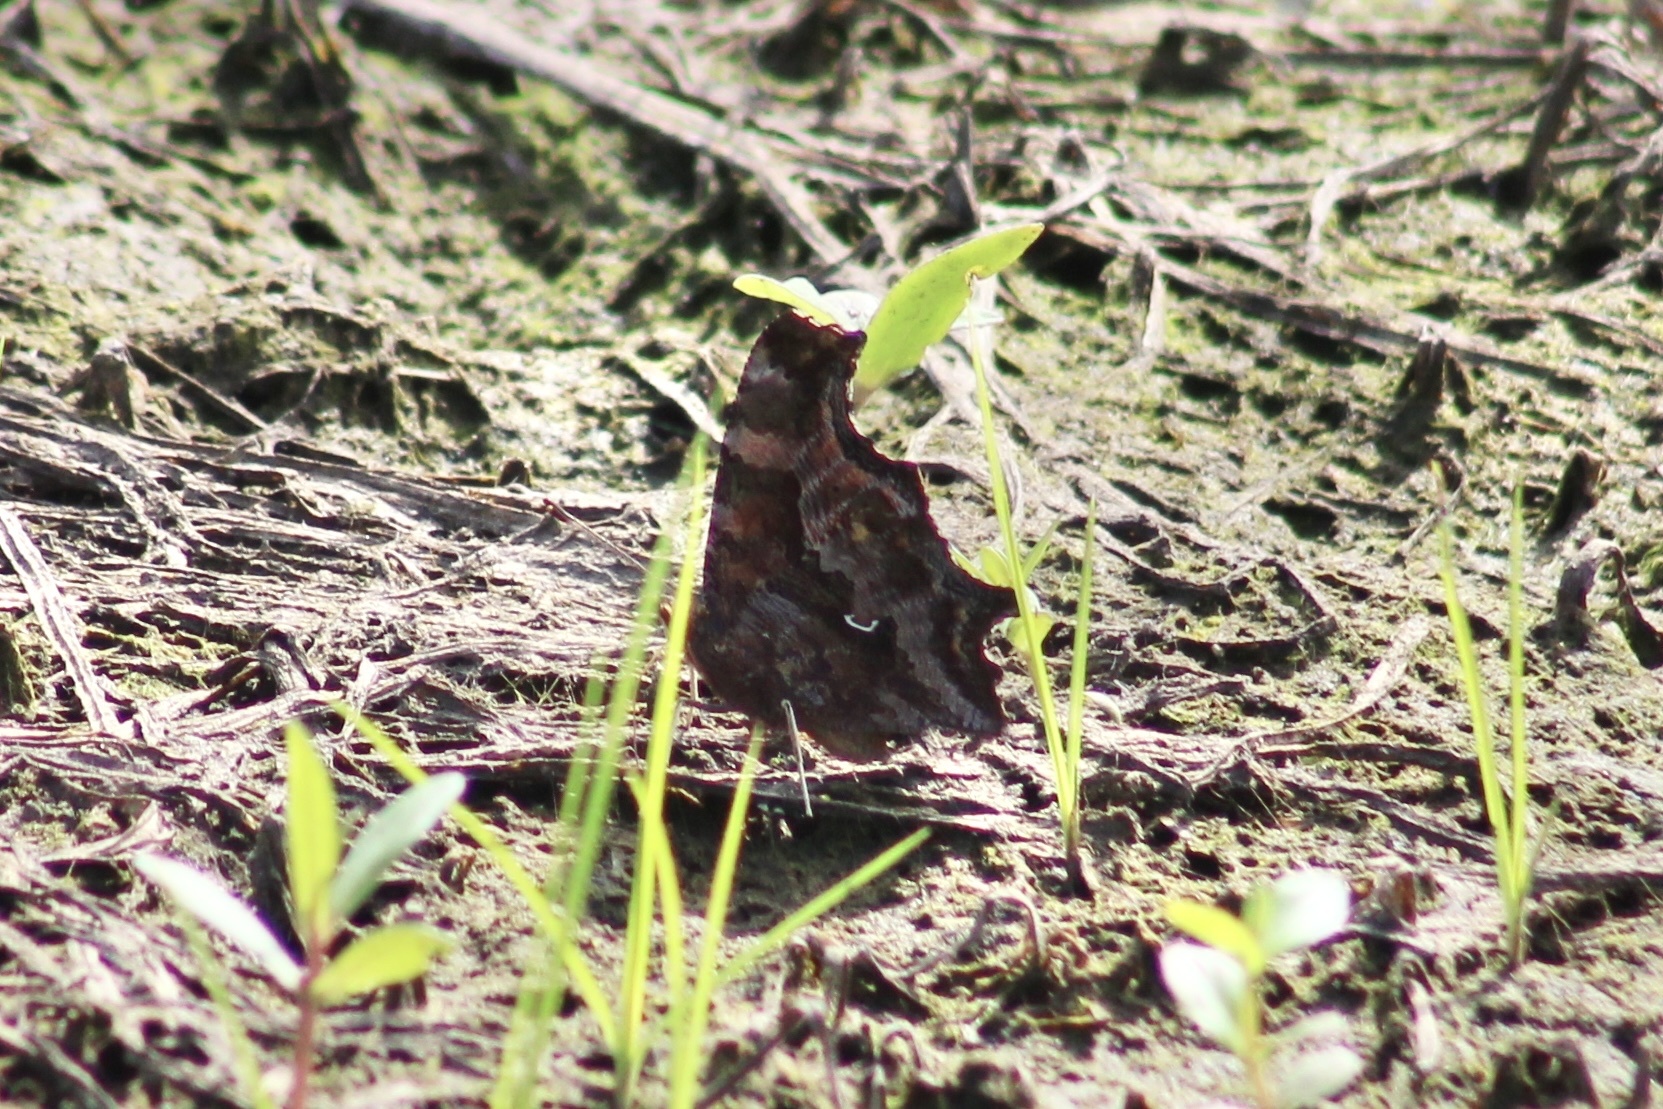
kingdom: Animalia
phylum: Arthropoda
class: Insecta
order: Lepidoptera
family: Nymphalidae
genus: Polygonia
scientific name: Polygonia comma
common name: Eastern comma
